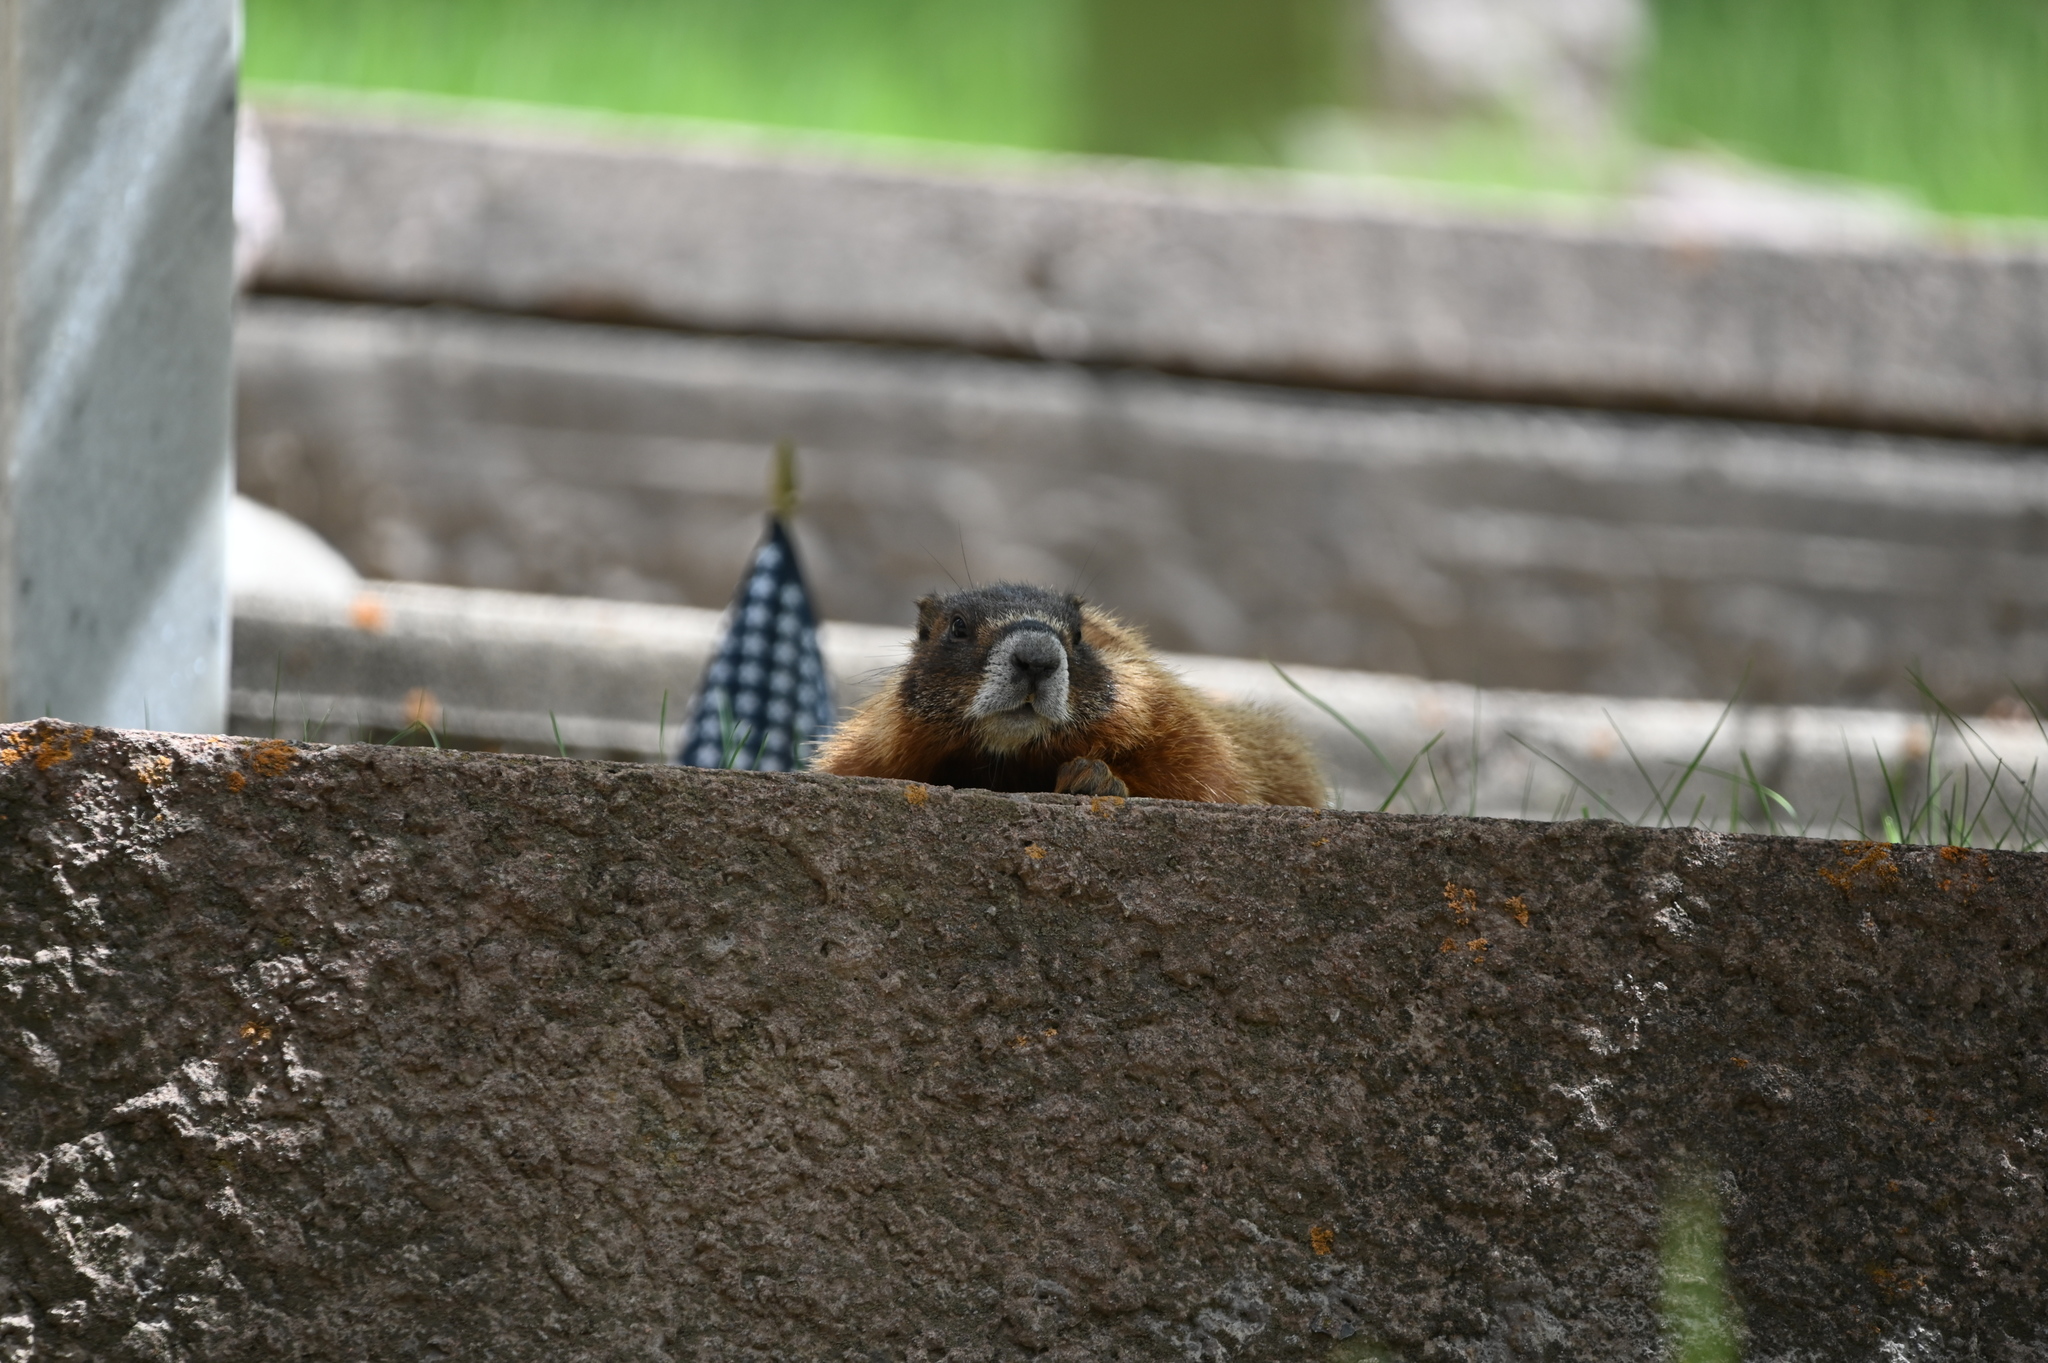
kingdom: Animalia
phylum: Chordata
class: Mammalia
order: Rodentia
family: Sciuridae
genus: Marmota
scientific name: Marmota flaviventris
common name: Yellow-bellied marmot
